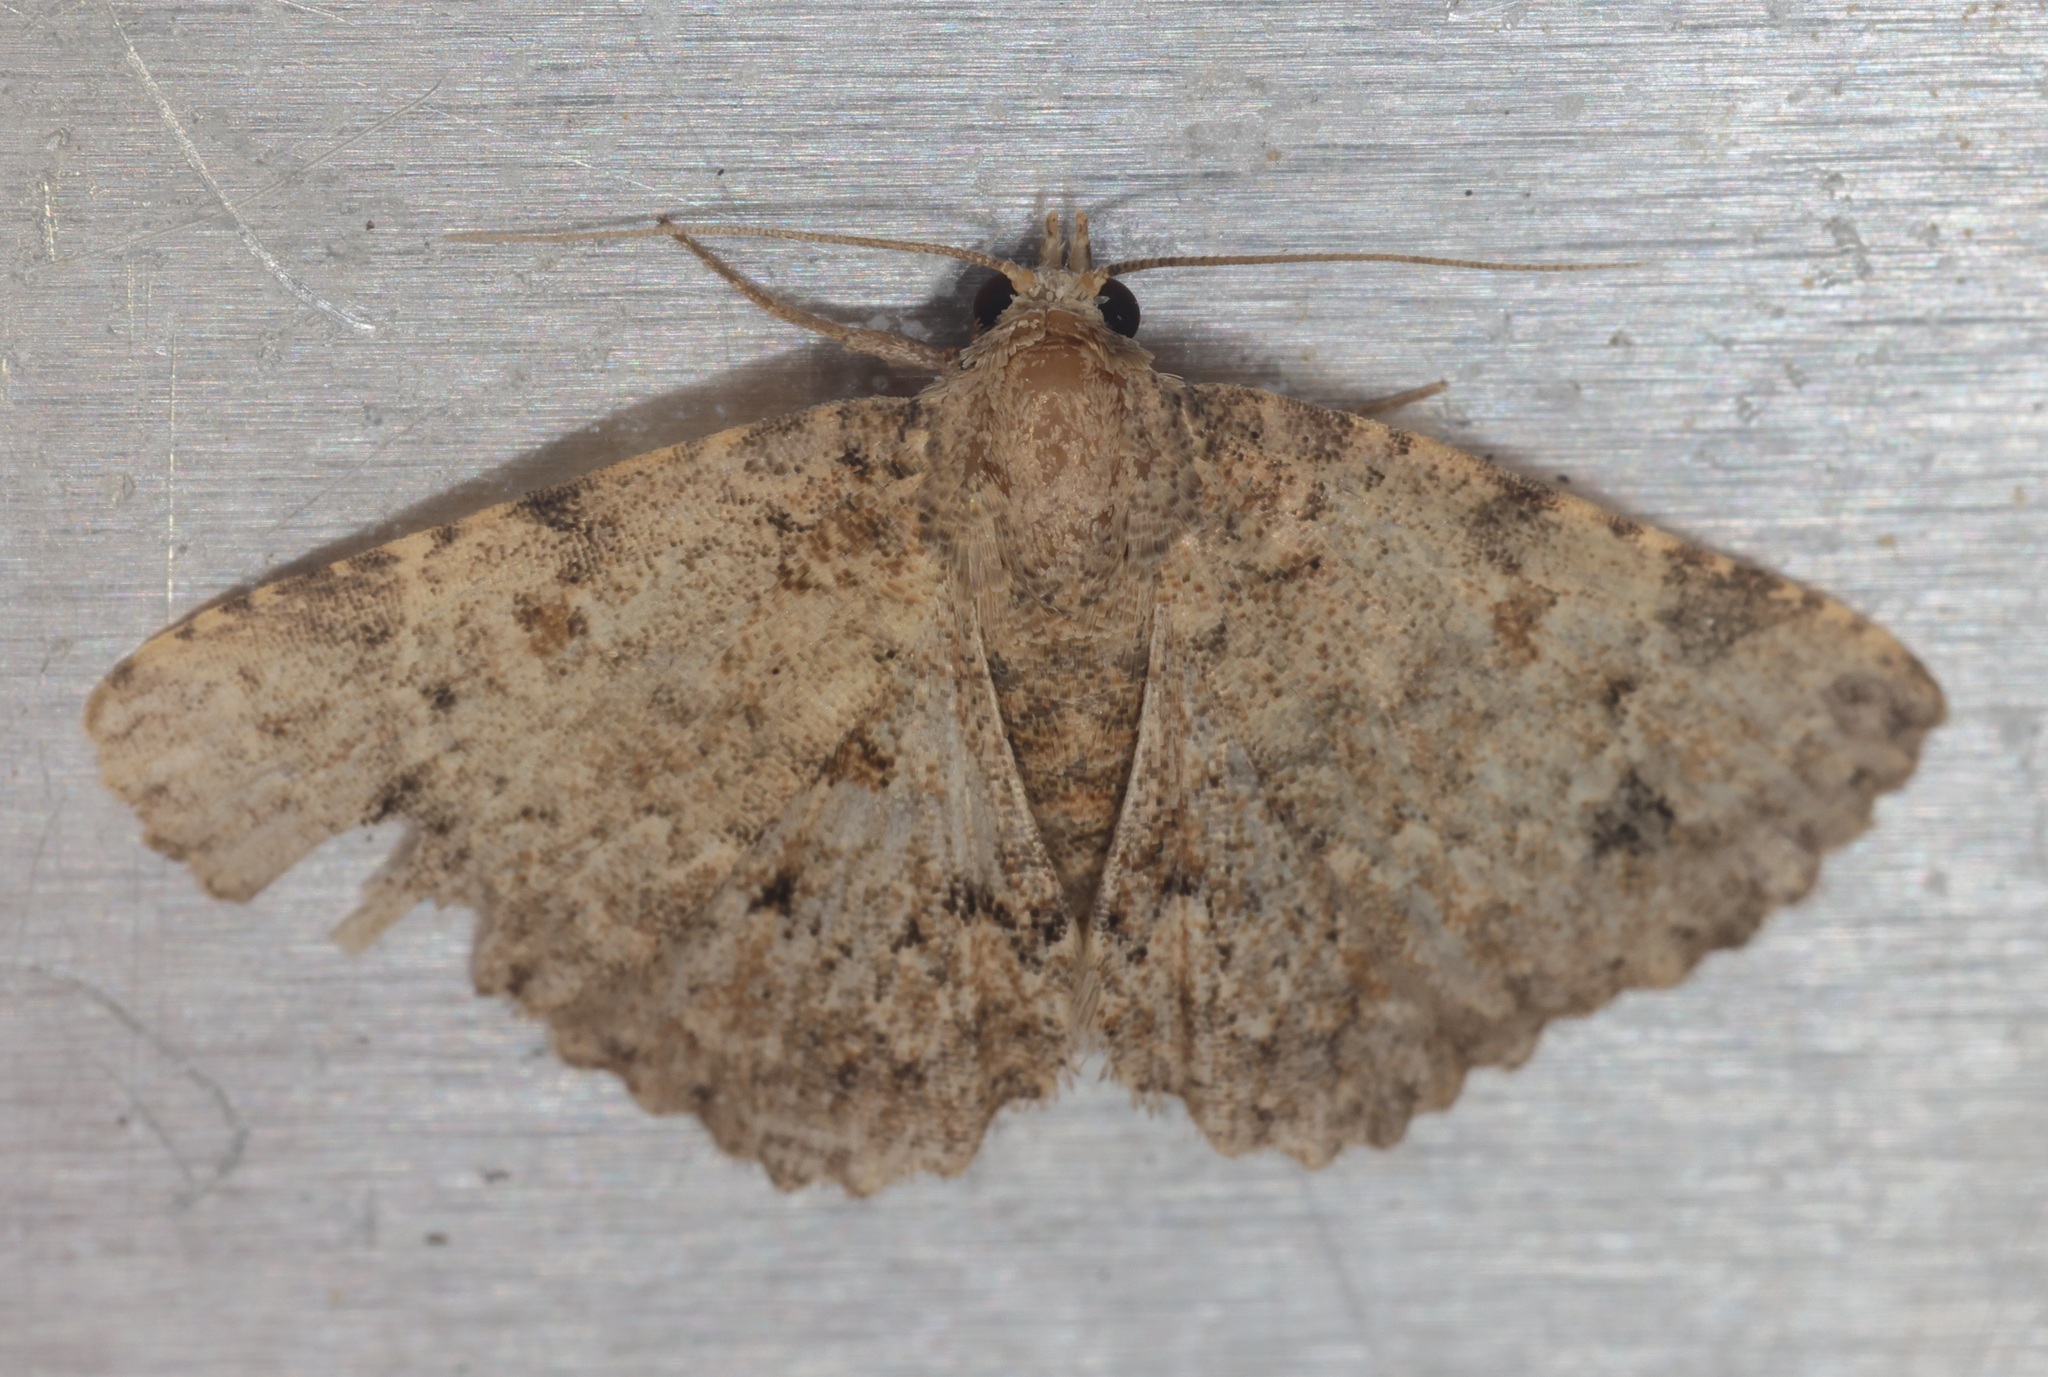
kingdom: Animalia
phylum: Arthropoda
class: Insecta
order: Lepidoptera
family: Erebidae
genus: Panilla
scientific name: Panilla poliochroa
